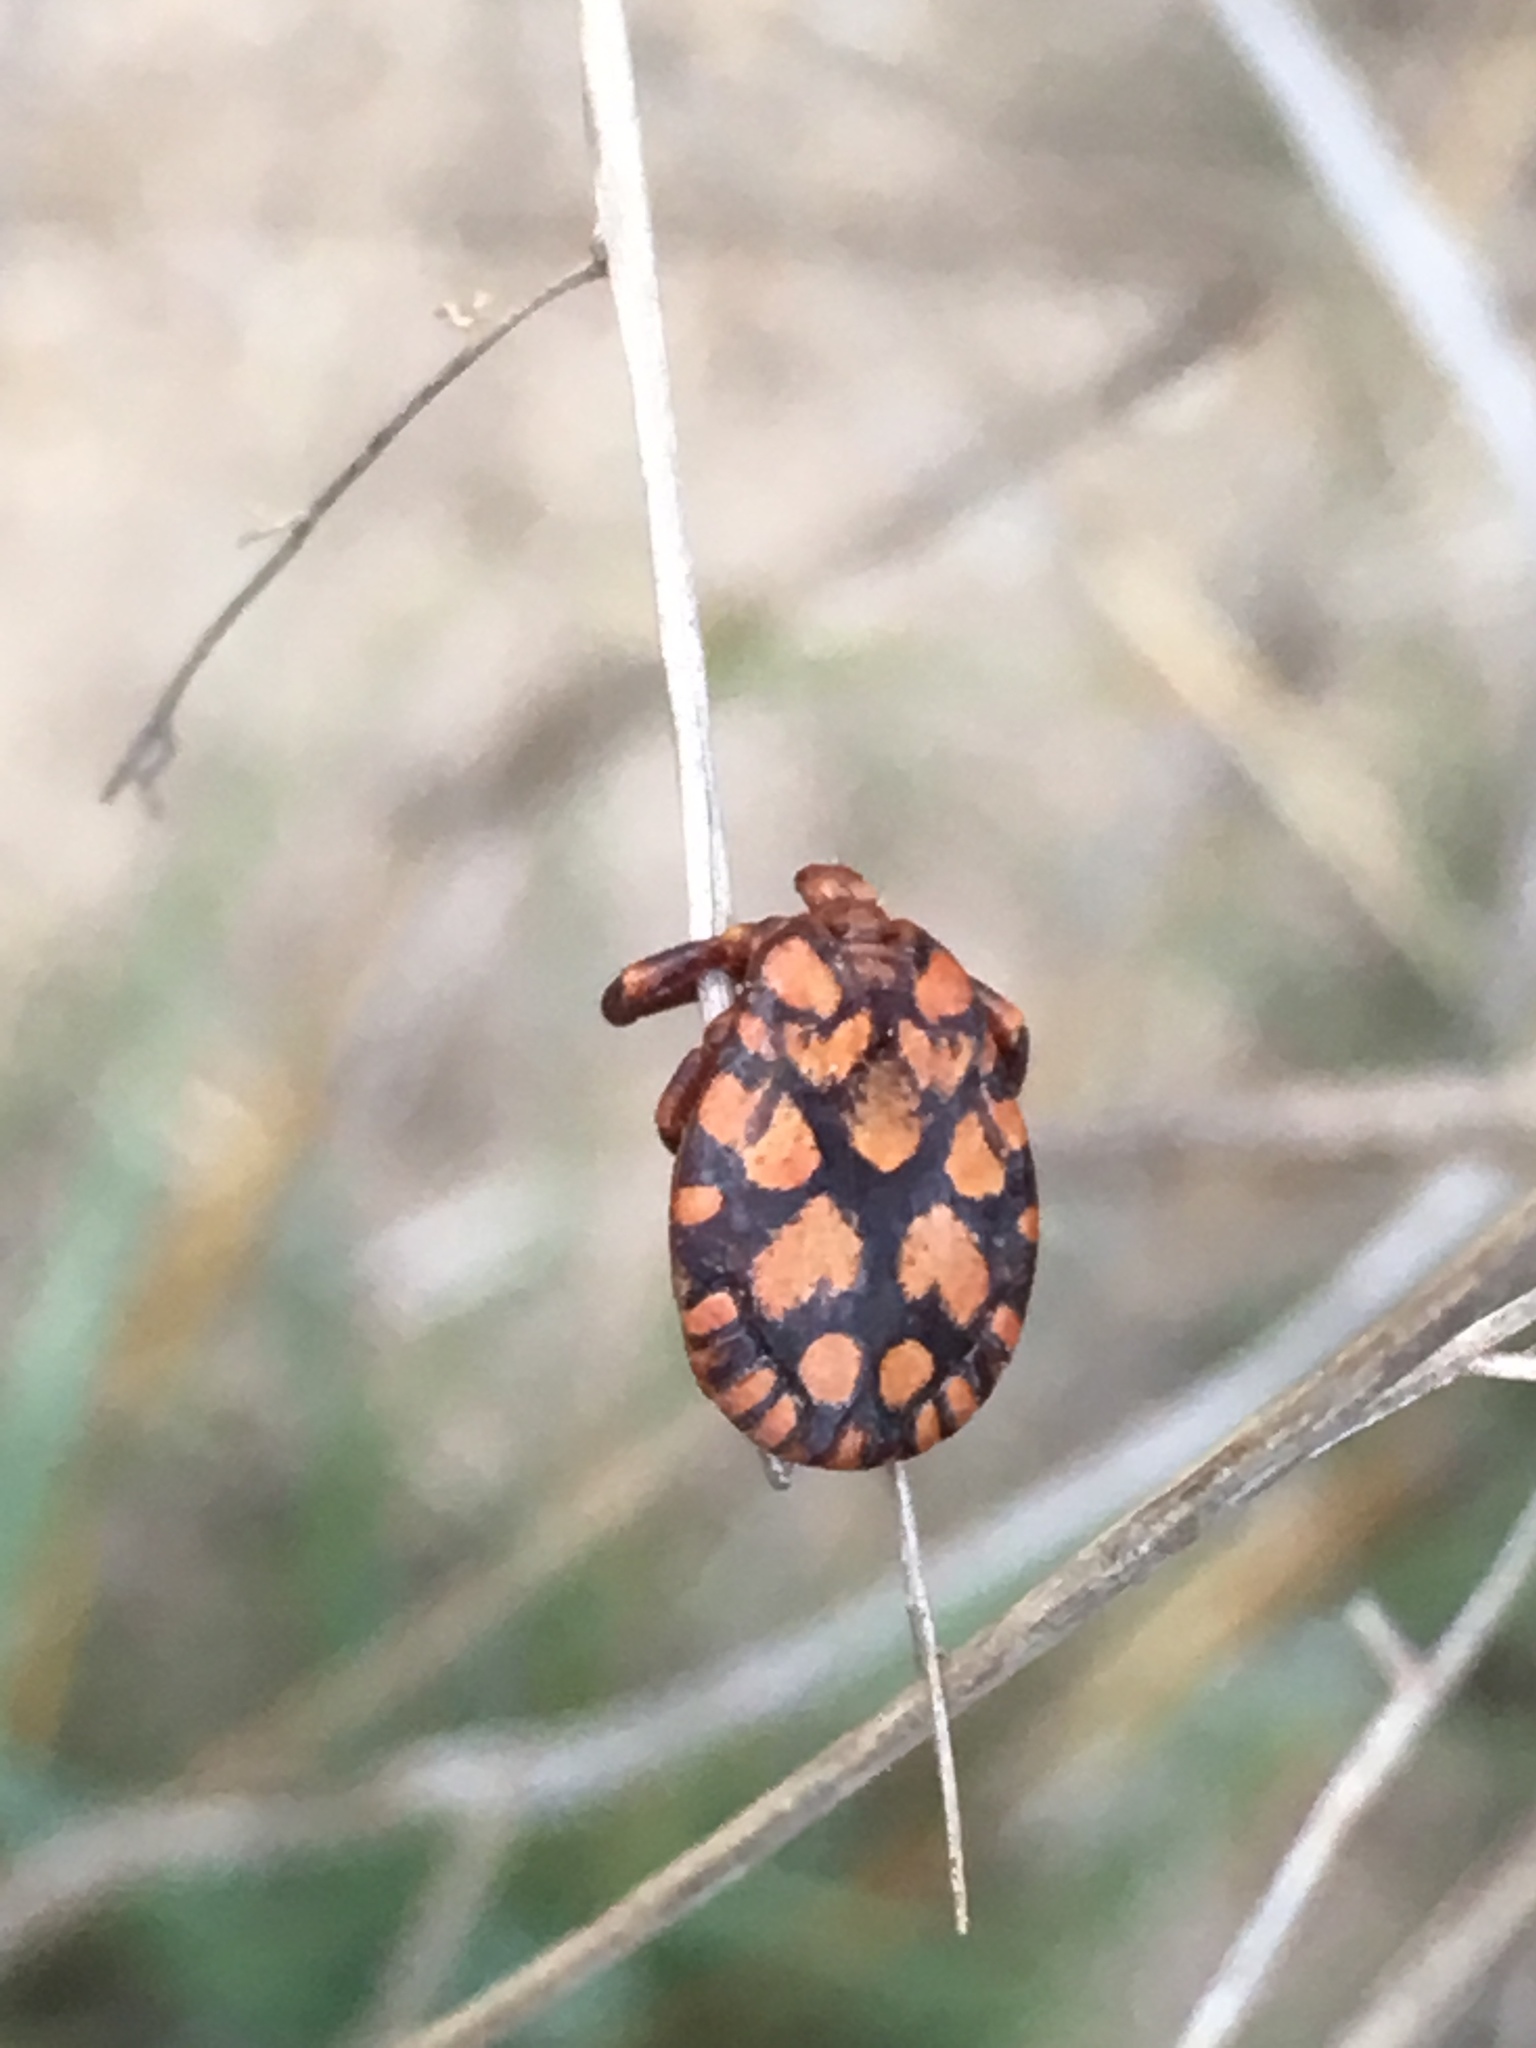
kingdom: Animalia
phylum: Arthropoda
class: Arachnida
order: Ixodida
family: Ixodidae
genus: Dermacentor
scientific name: Dermacentor rhinocerinus
